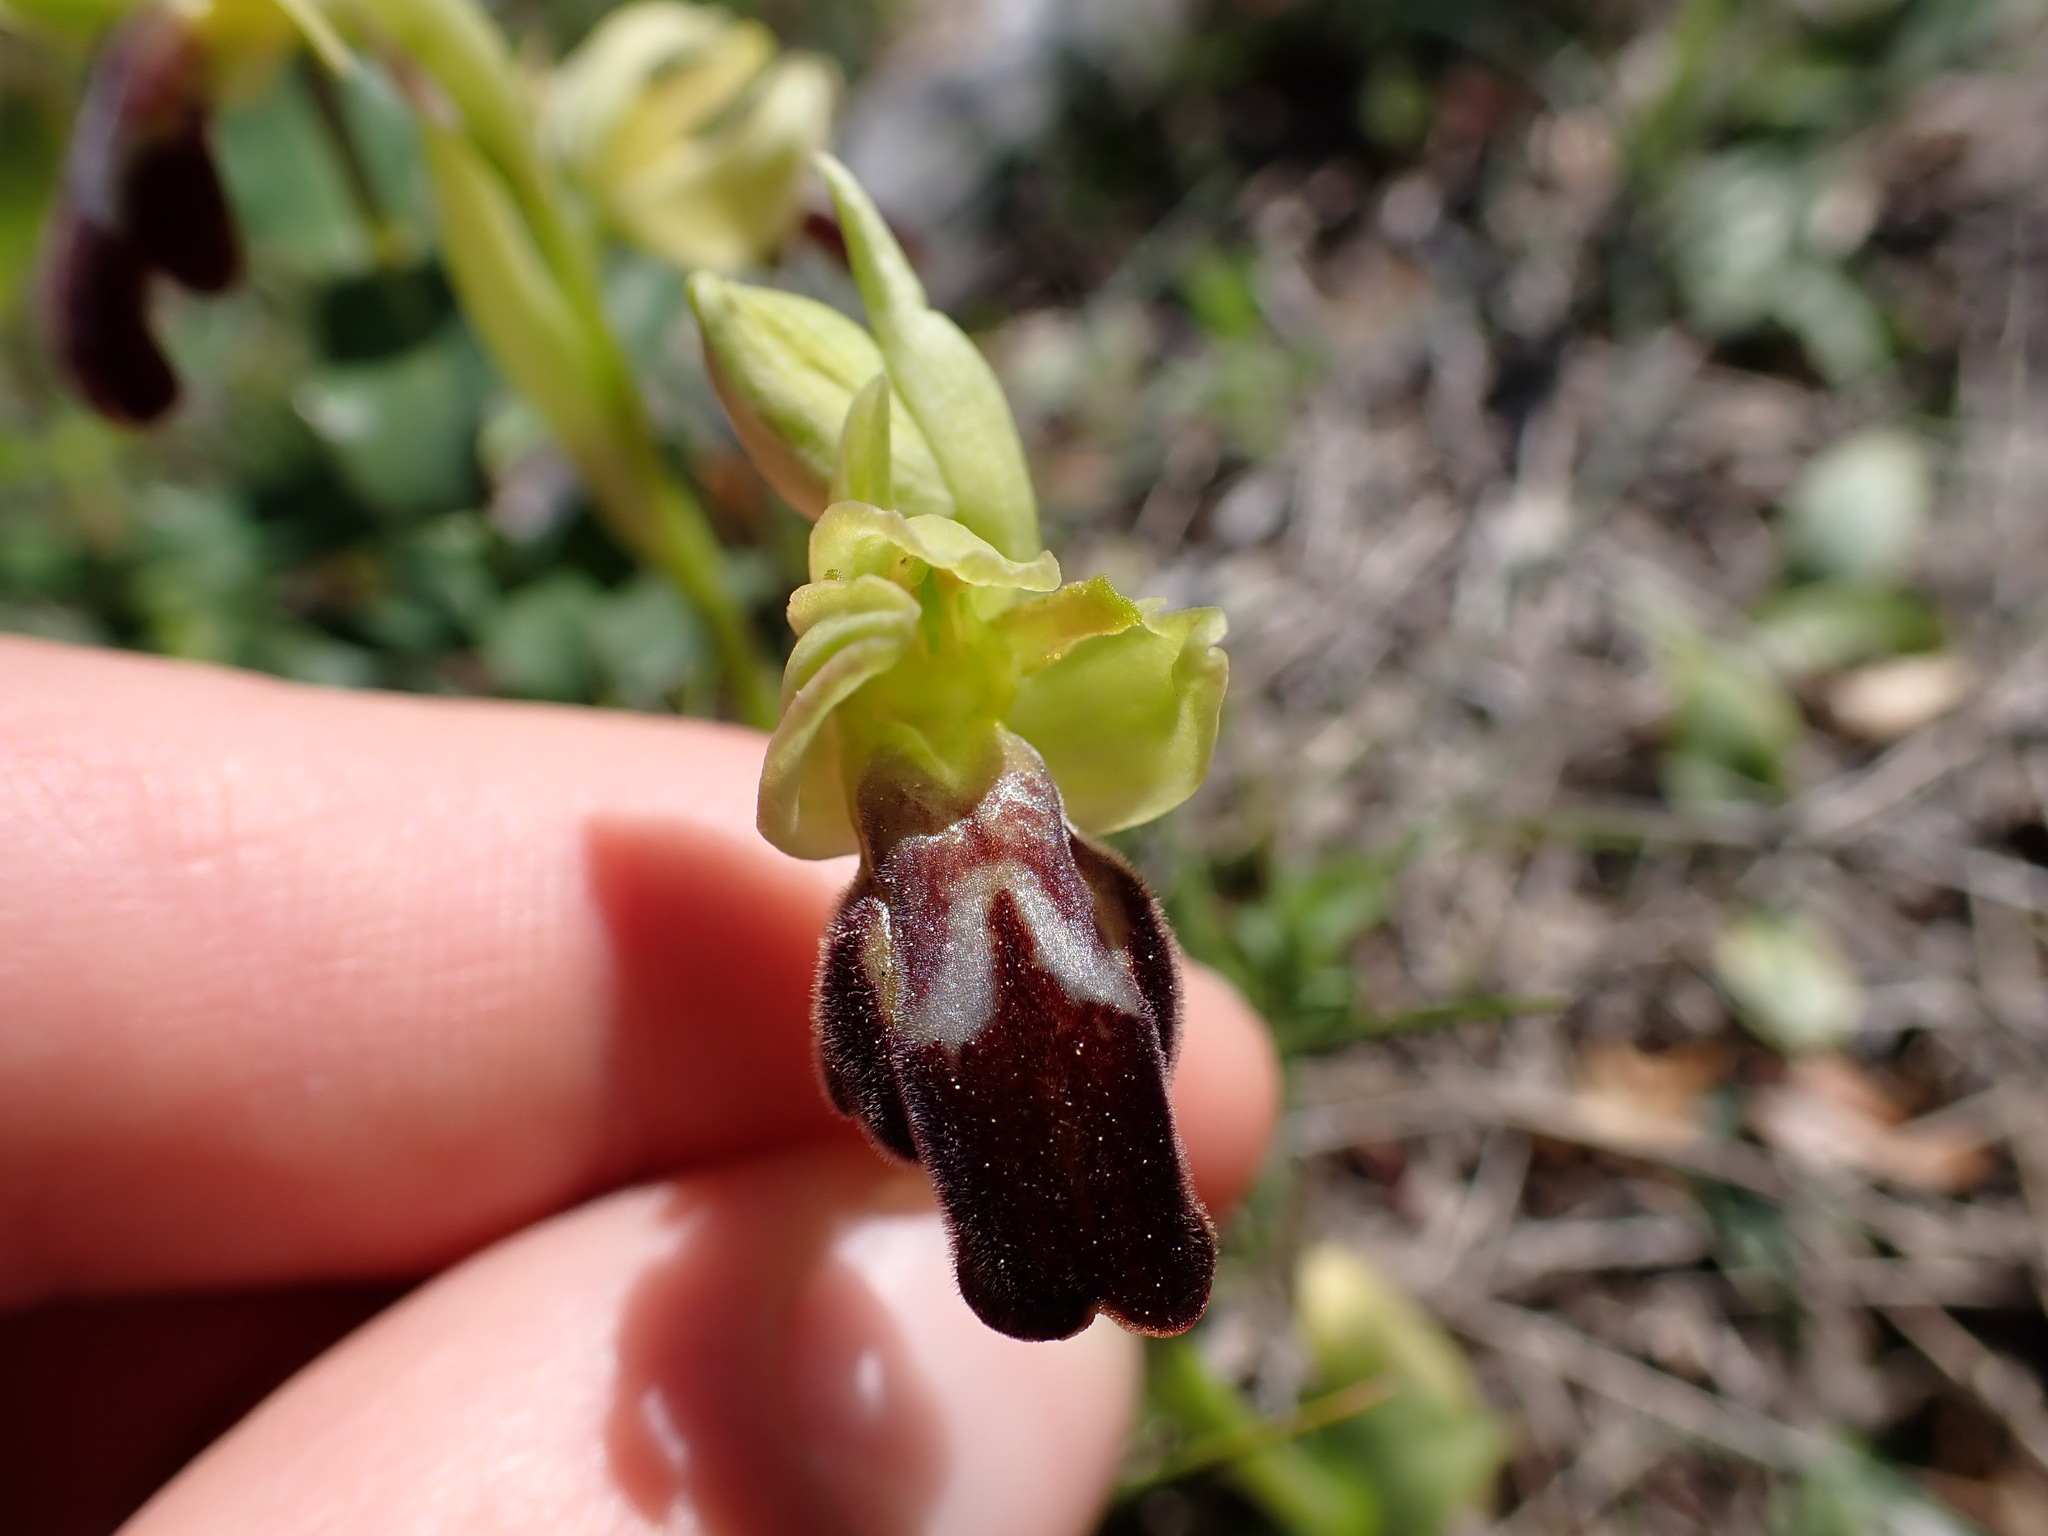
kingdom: Plantae
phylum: Tracheophyta
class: Liliopsida
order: Asparagales
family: Orchidaceae
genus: Ophrys
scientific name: Ophrys fusca
